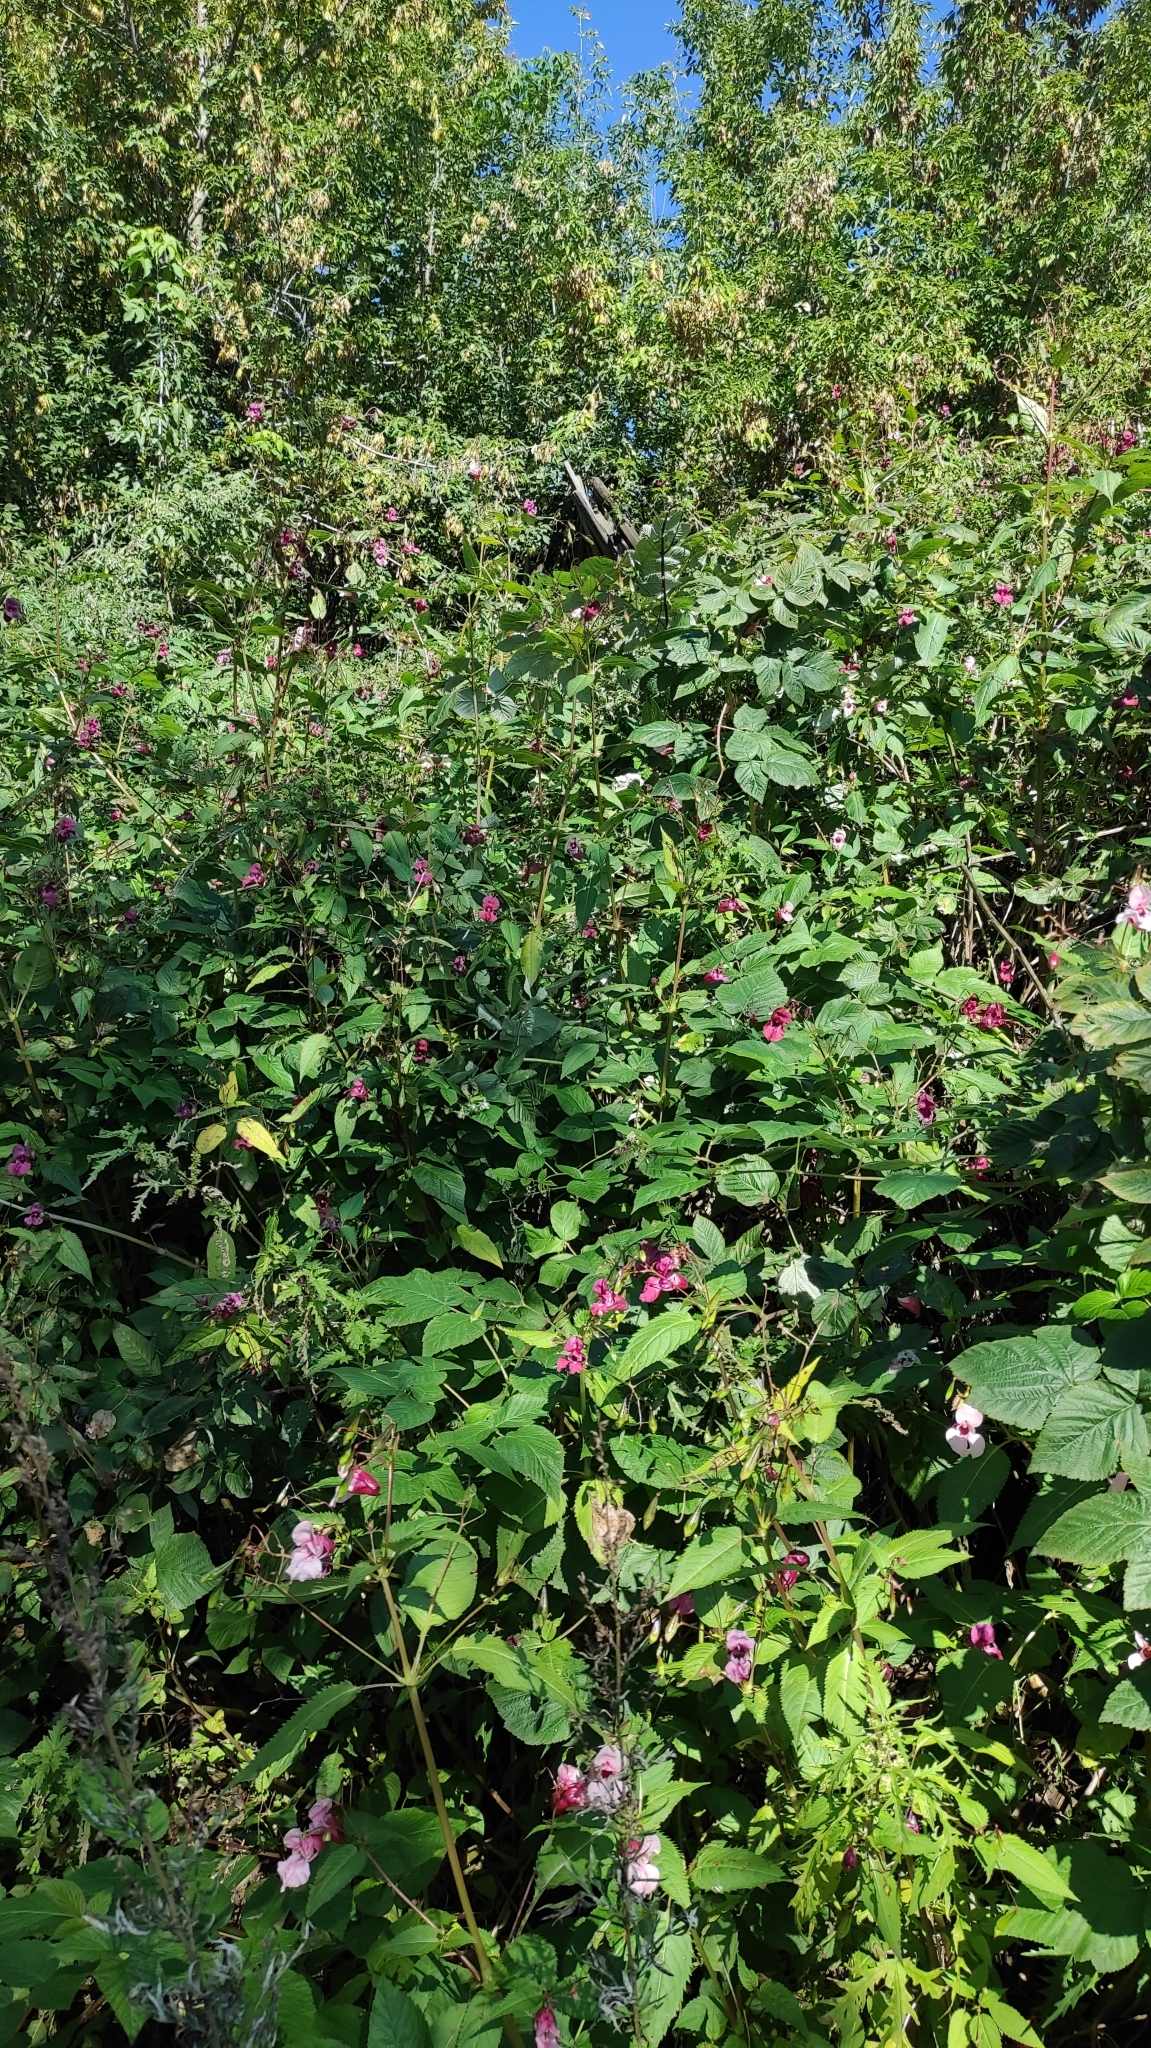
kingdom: Plantae
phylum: Tracheophyta
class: Magnoliopsida
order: Ericales
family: Balsaminaceae
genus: Impatiens
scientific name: Impatiens glandulifera
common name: Himalayan balsam
